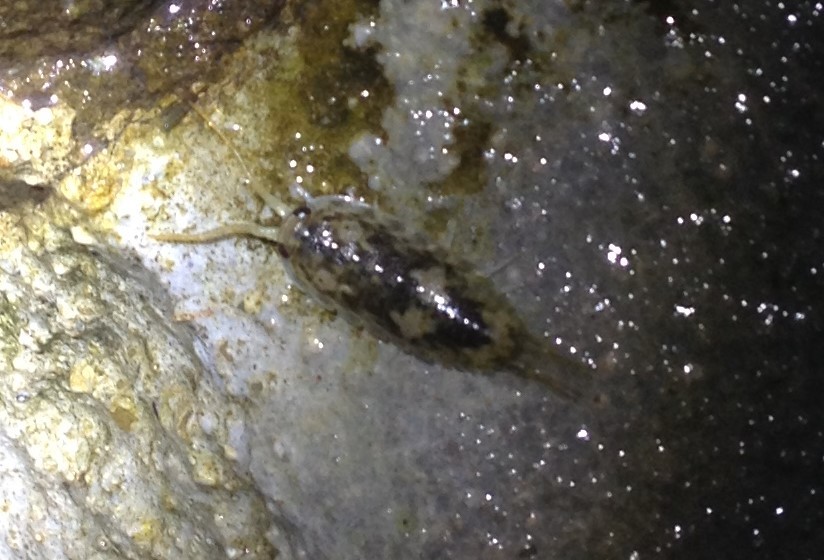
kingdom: Animalia
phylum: Arthropoda
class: Malacostraca
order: Isopoda
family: Ligiidae
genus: Ligia
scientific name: Ligia oceanica
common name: Sea slater
